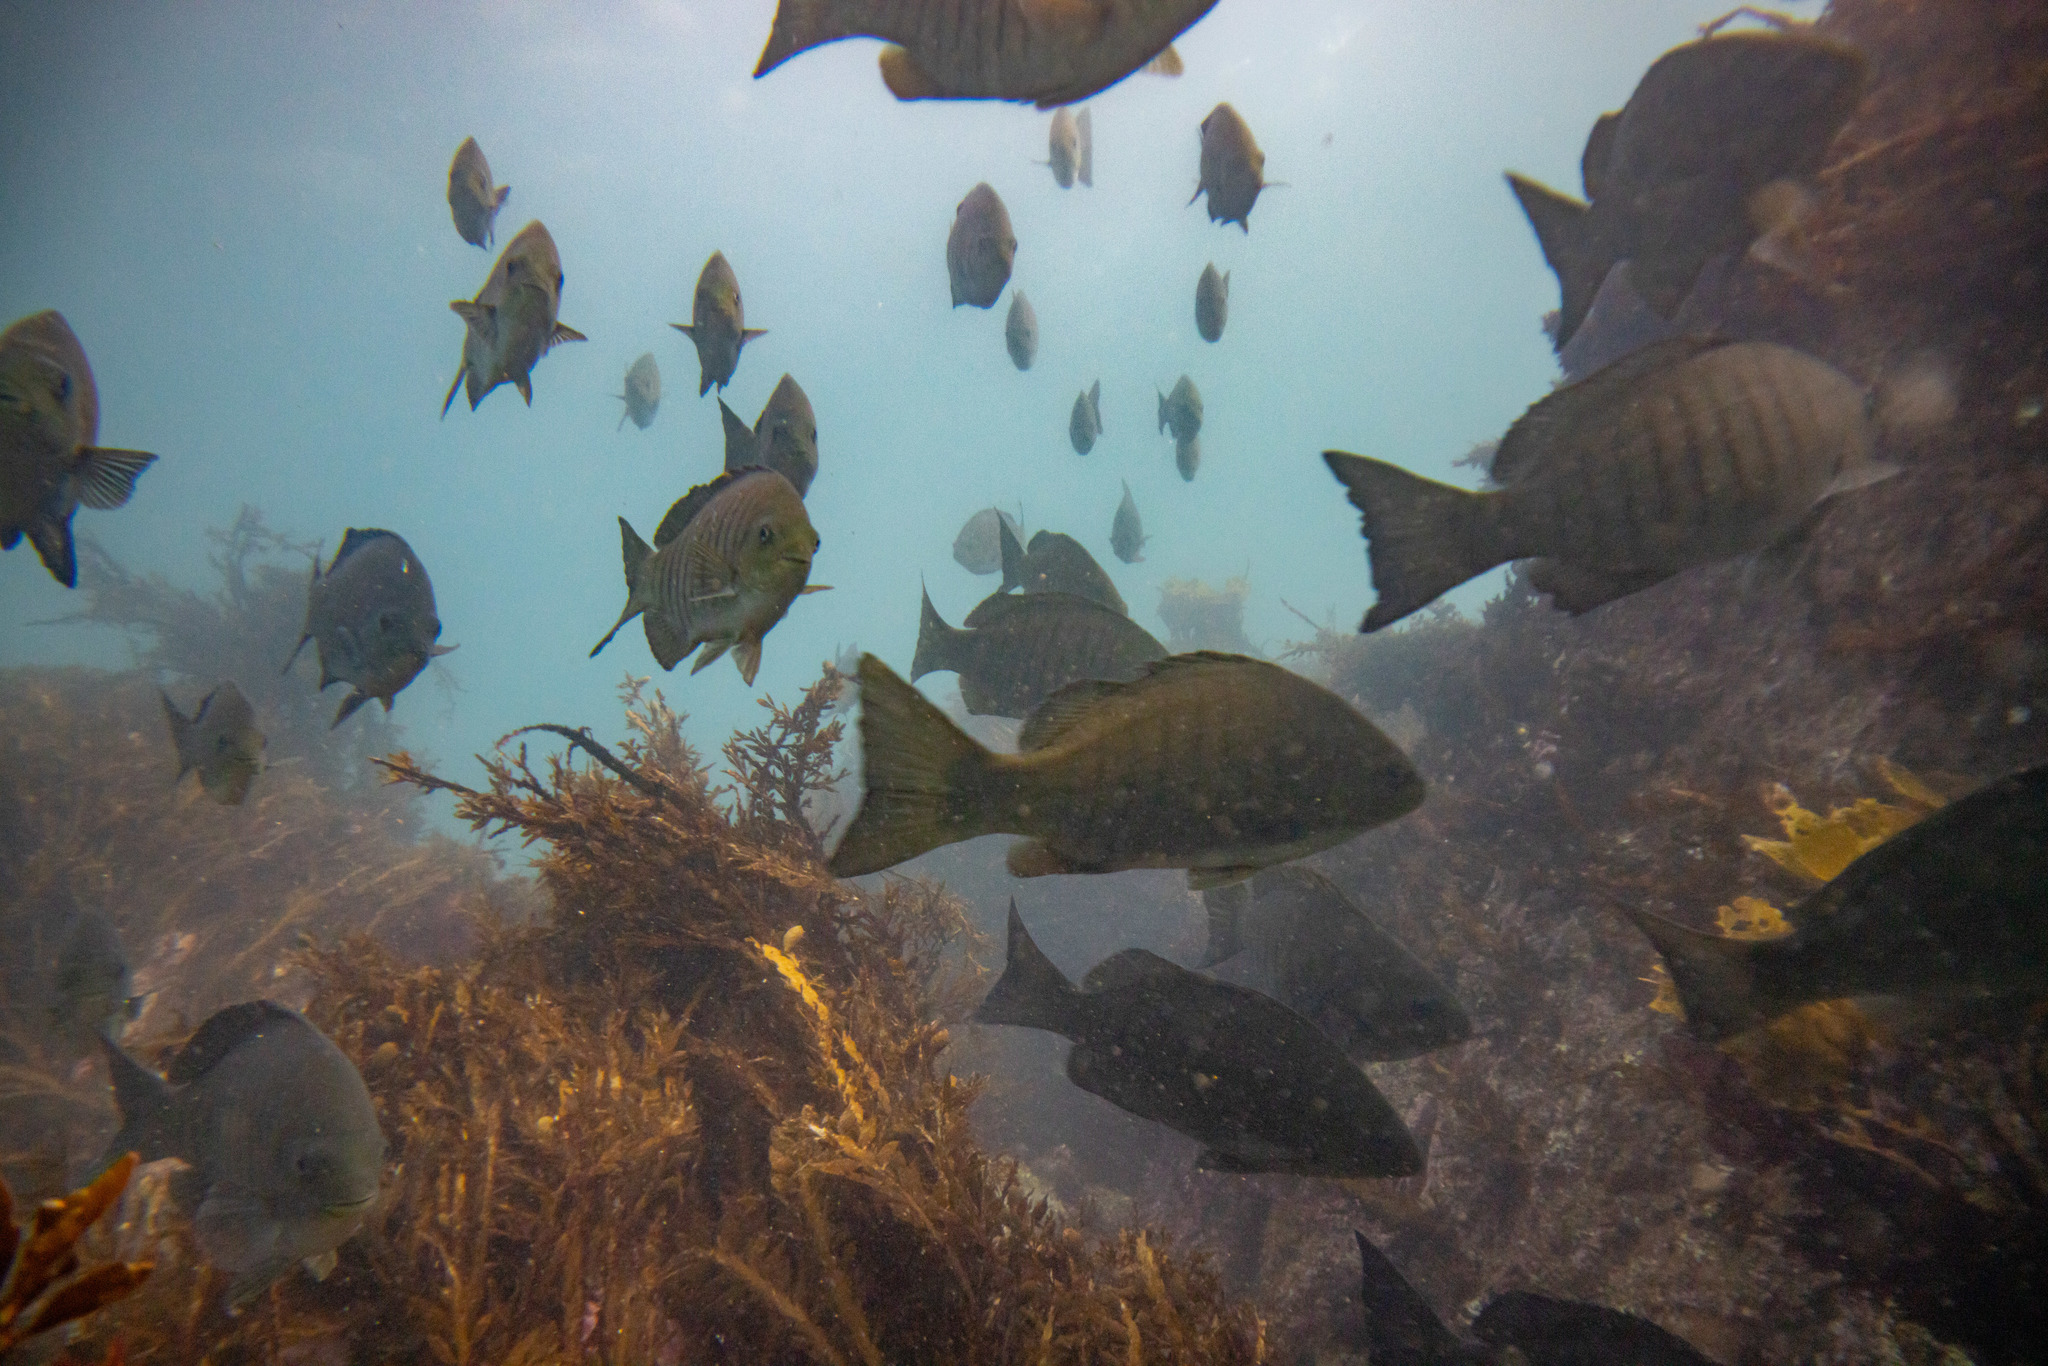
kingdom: Animalia
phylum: Chordata
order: Perciformes
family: Kyphosidae
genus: Girella
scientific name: Girella tricuspidata
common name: Parore
